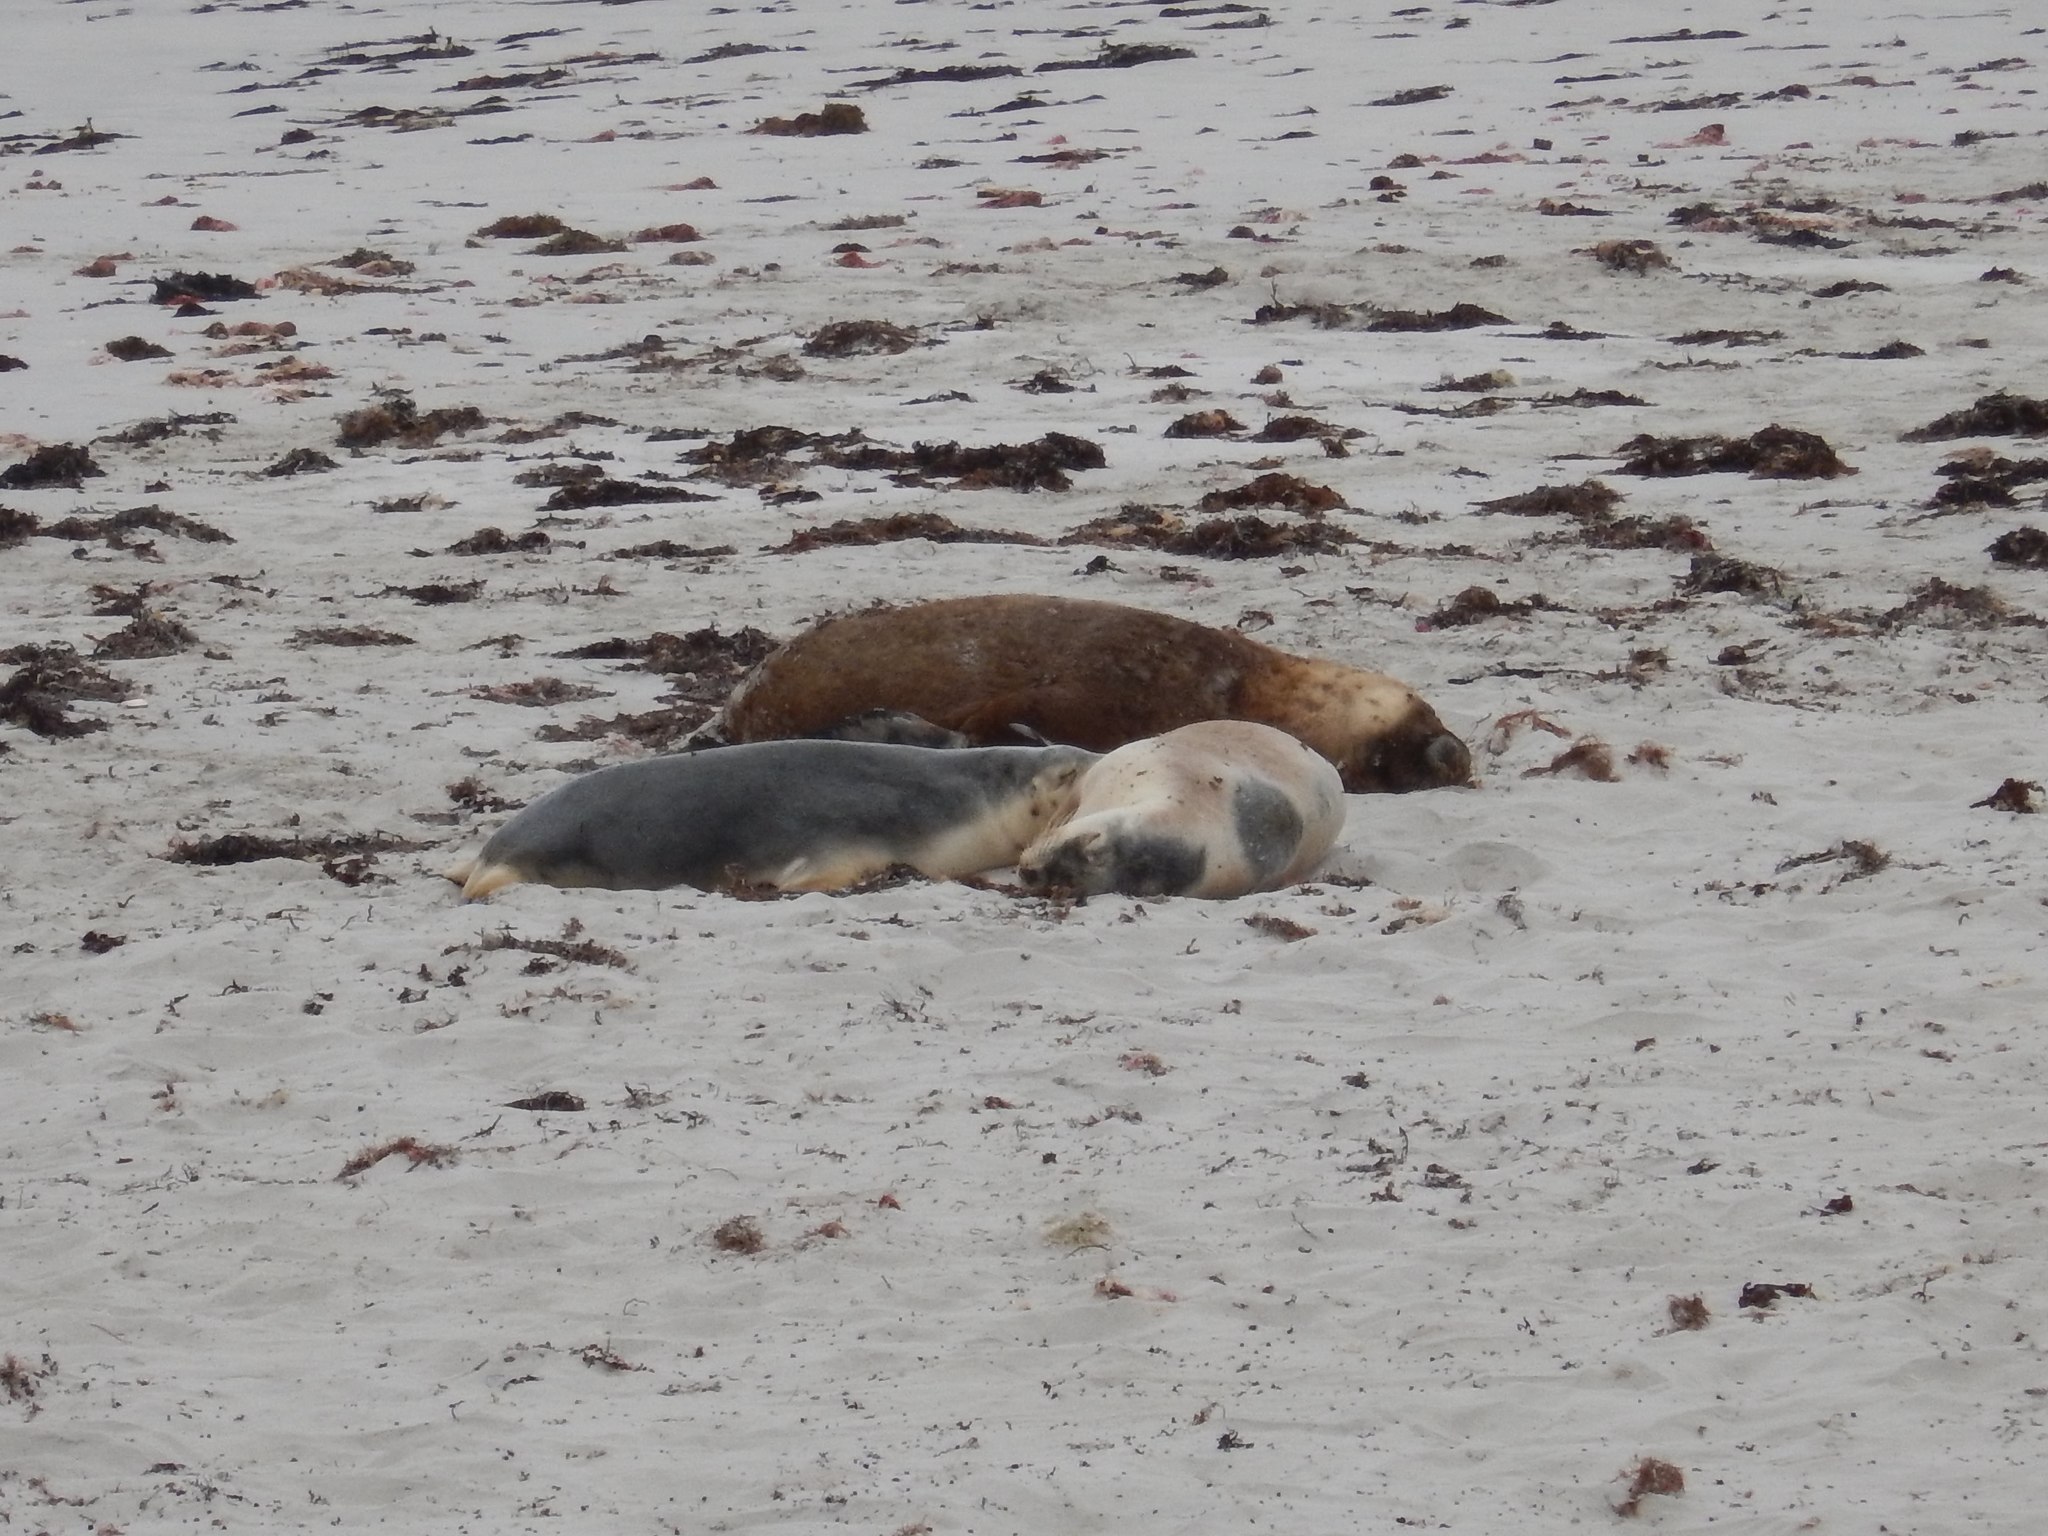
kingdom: Animalia
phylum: Chordata
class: Mammalia
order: Carnivora
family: Otariidae
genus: Neophoca
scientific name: Neophoca cinerea
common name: Australian sea lion
